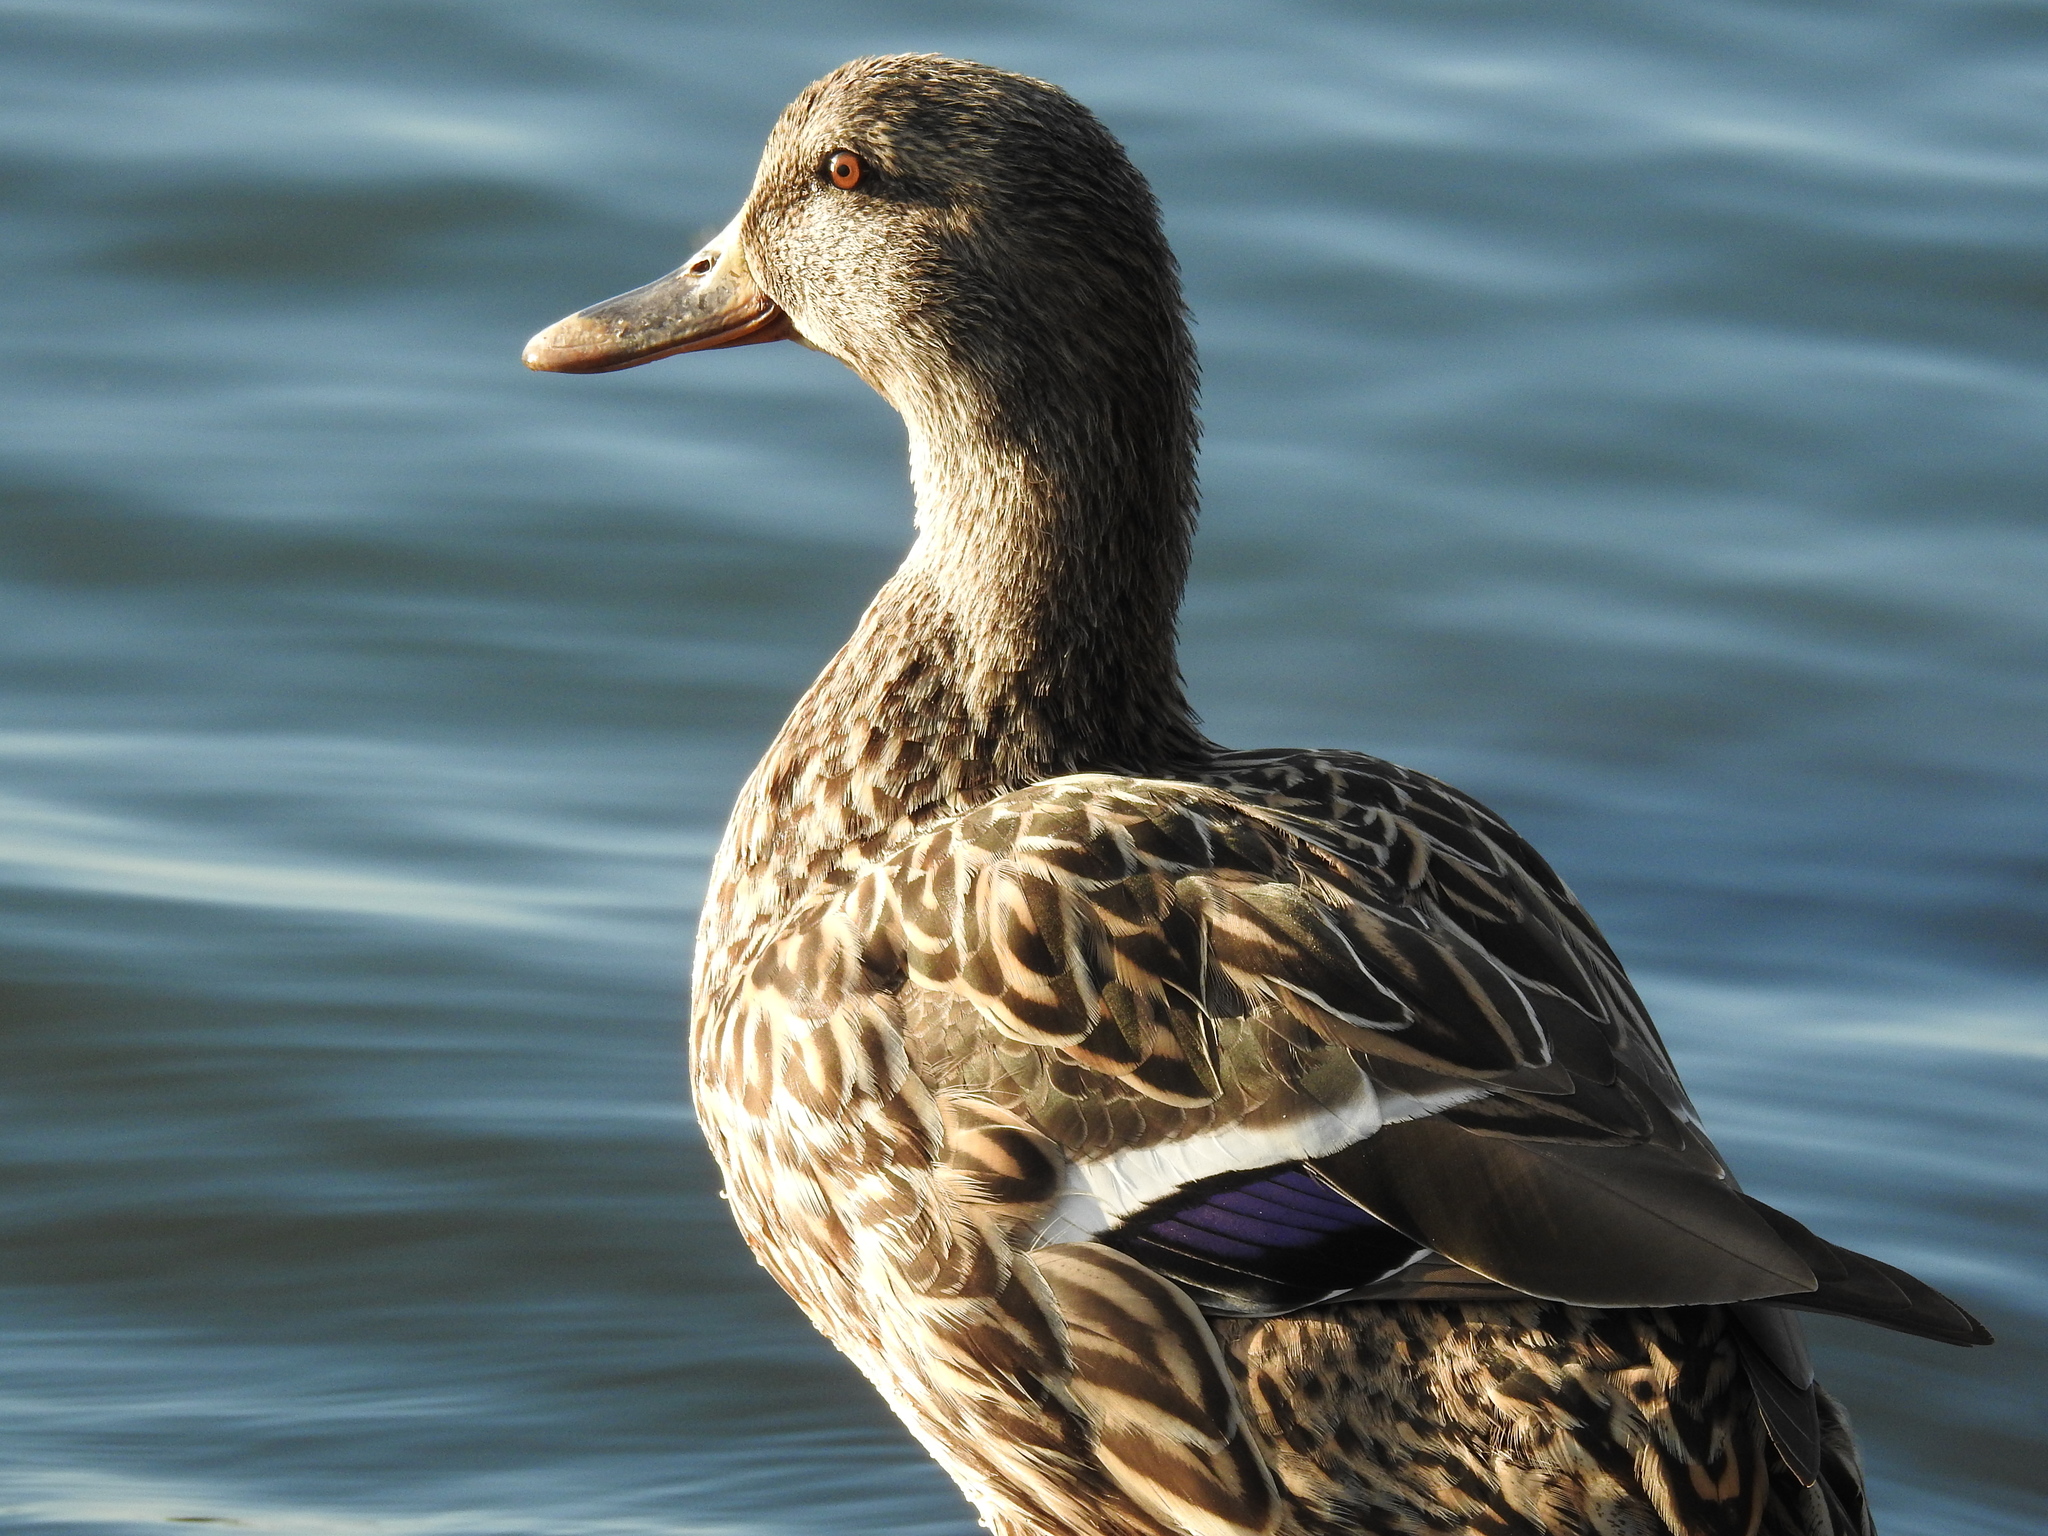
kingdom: Animalia
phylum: Chordata
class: Aves
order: Anseriformes
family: Anatidae
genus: Anas
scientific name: Anas platyrhynchos
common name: Mallard
